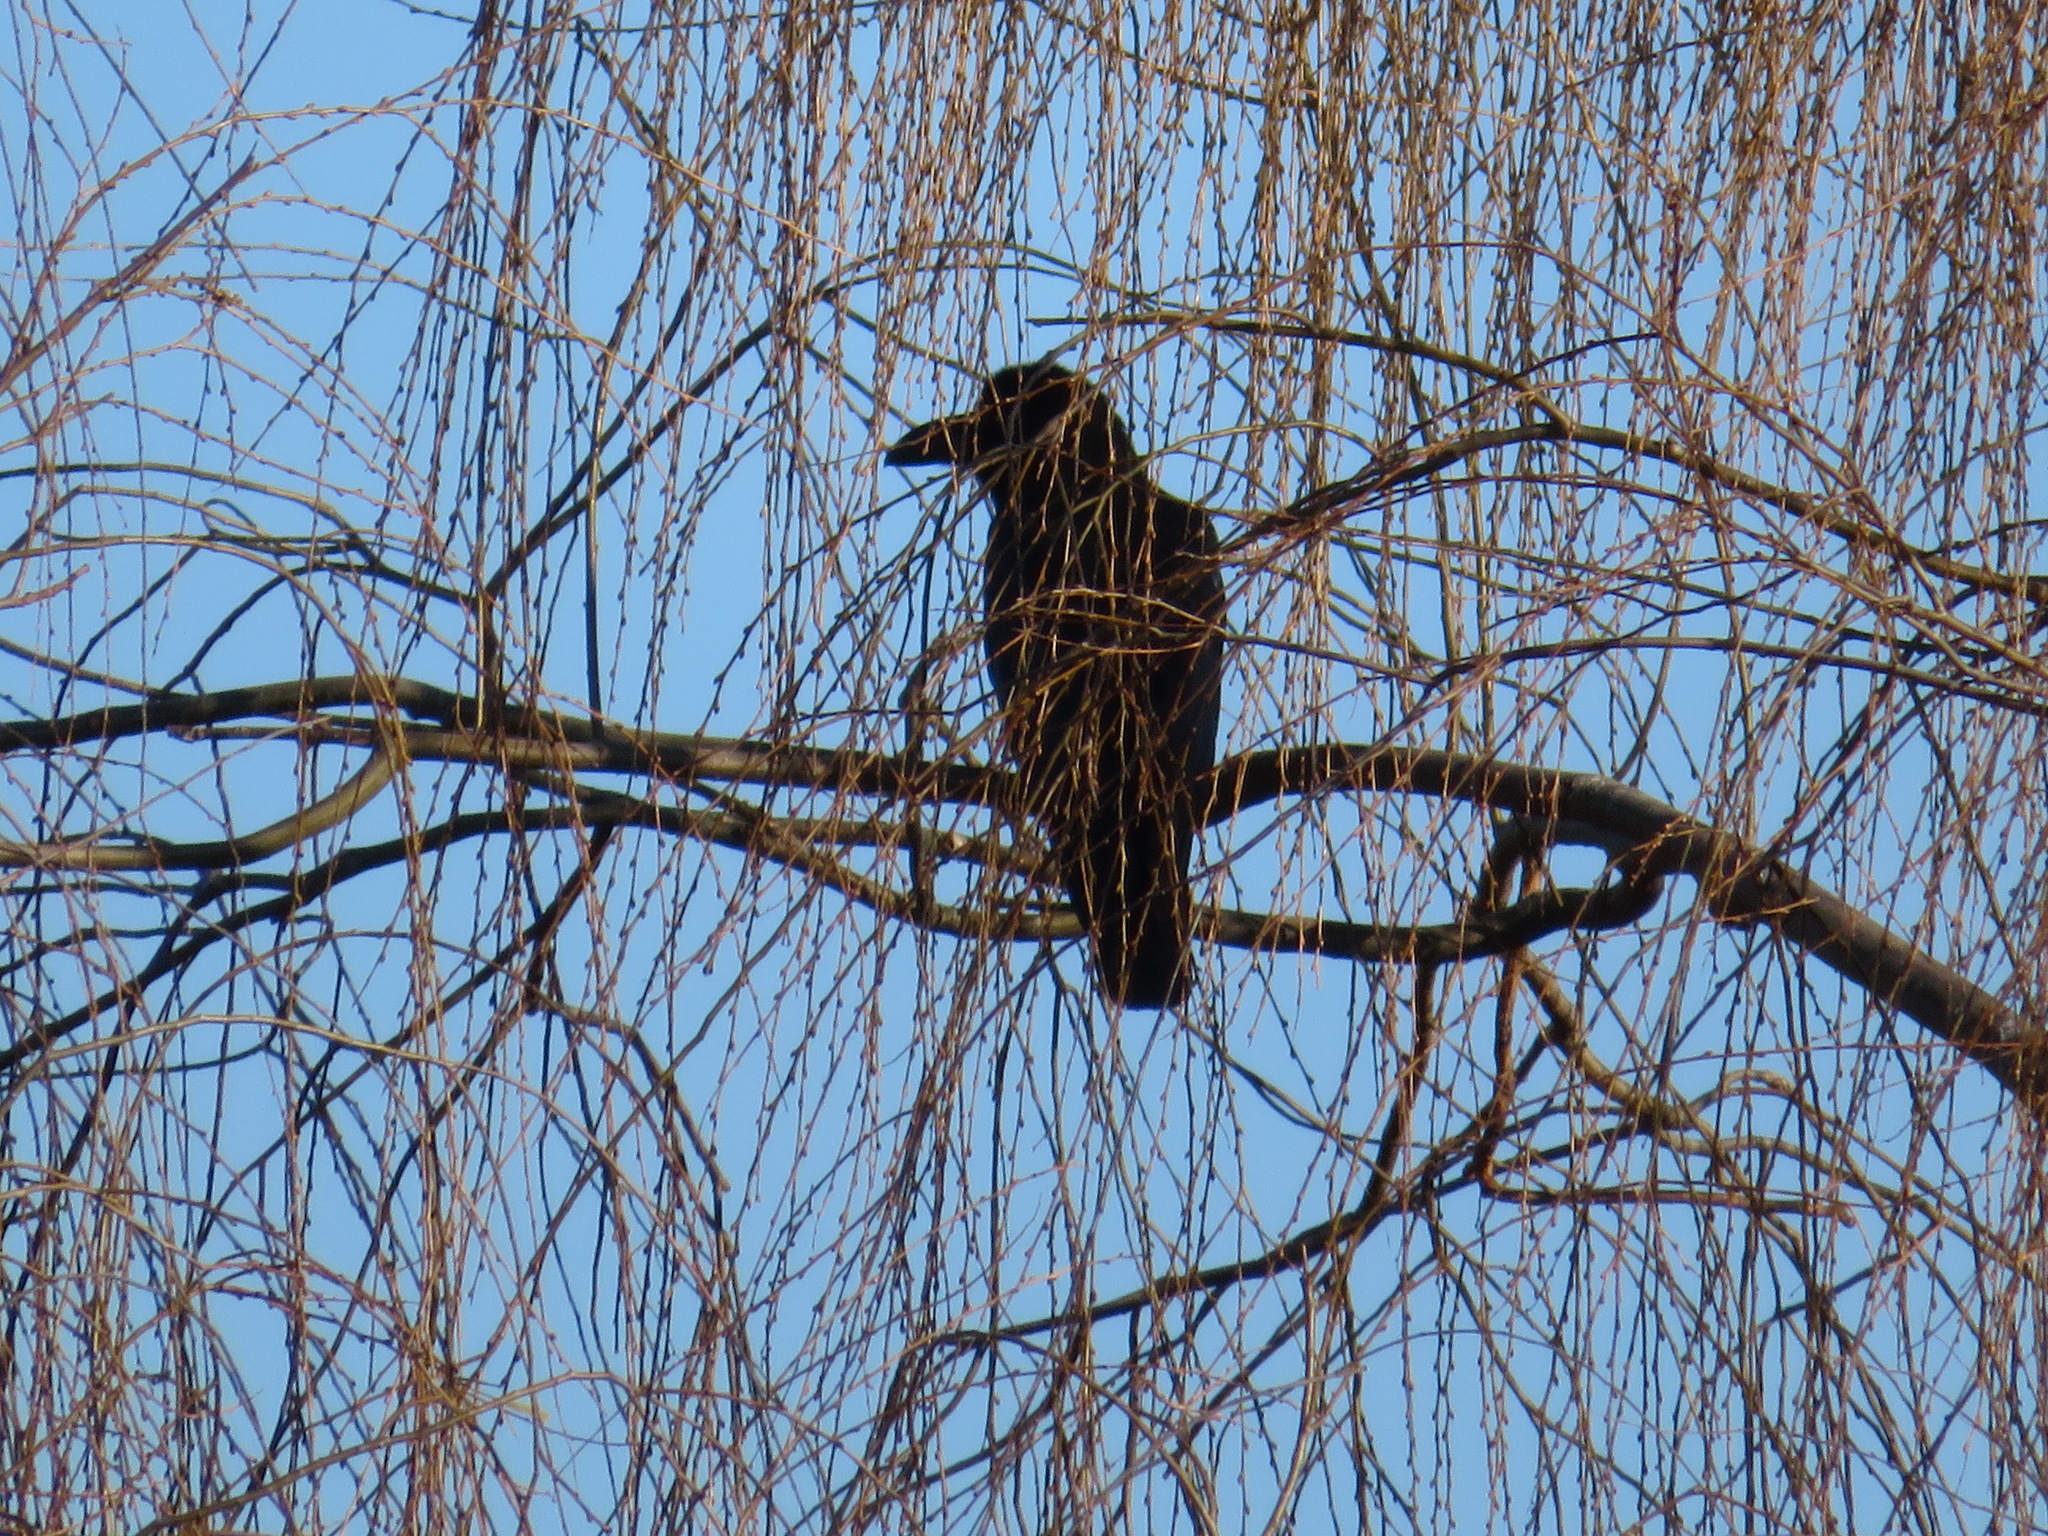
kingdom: Animalia
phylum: Chordata
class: Aves
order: Passeriformes
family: Corvidae
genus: Corvus
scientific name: Corvus macrorhynchos
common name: Large-billed crow
